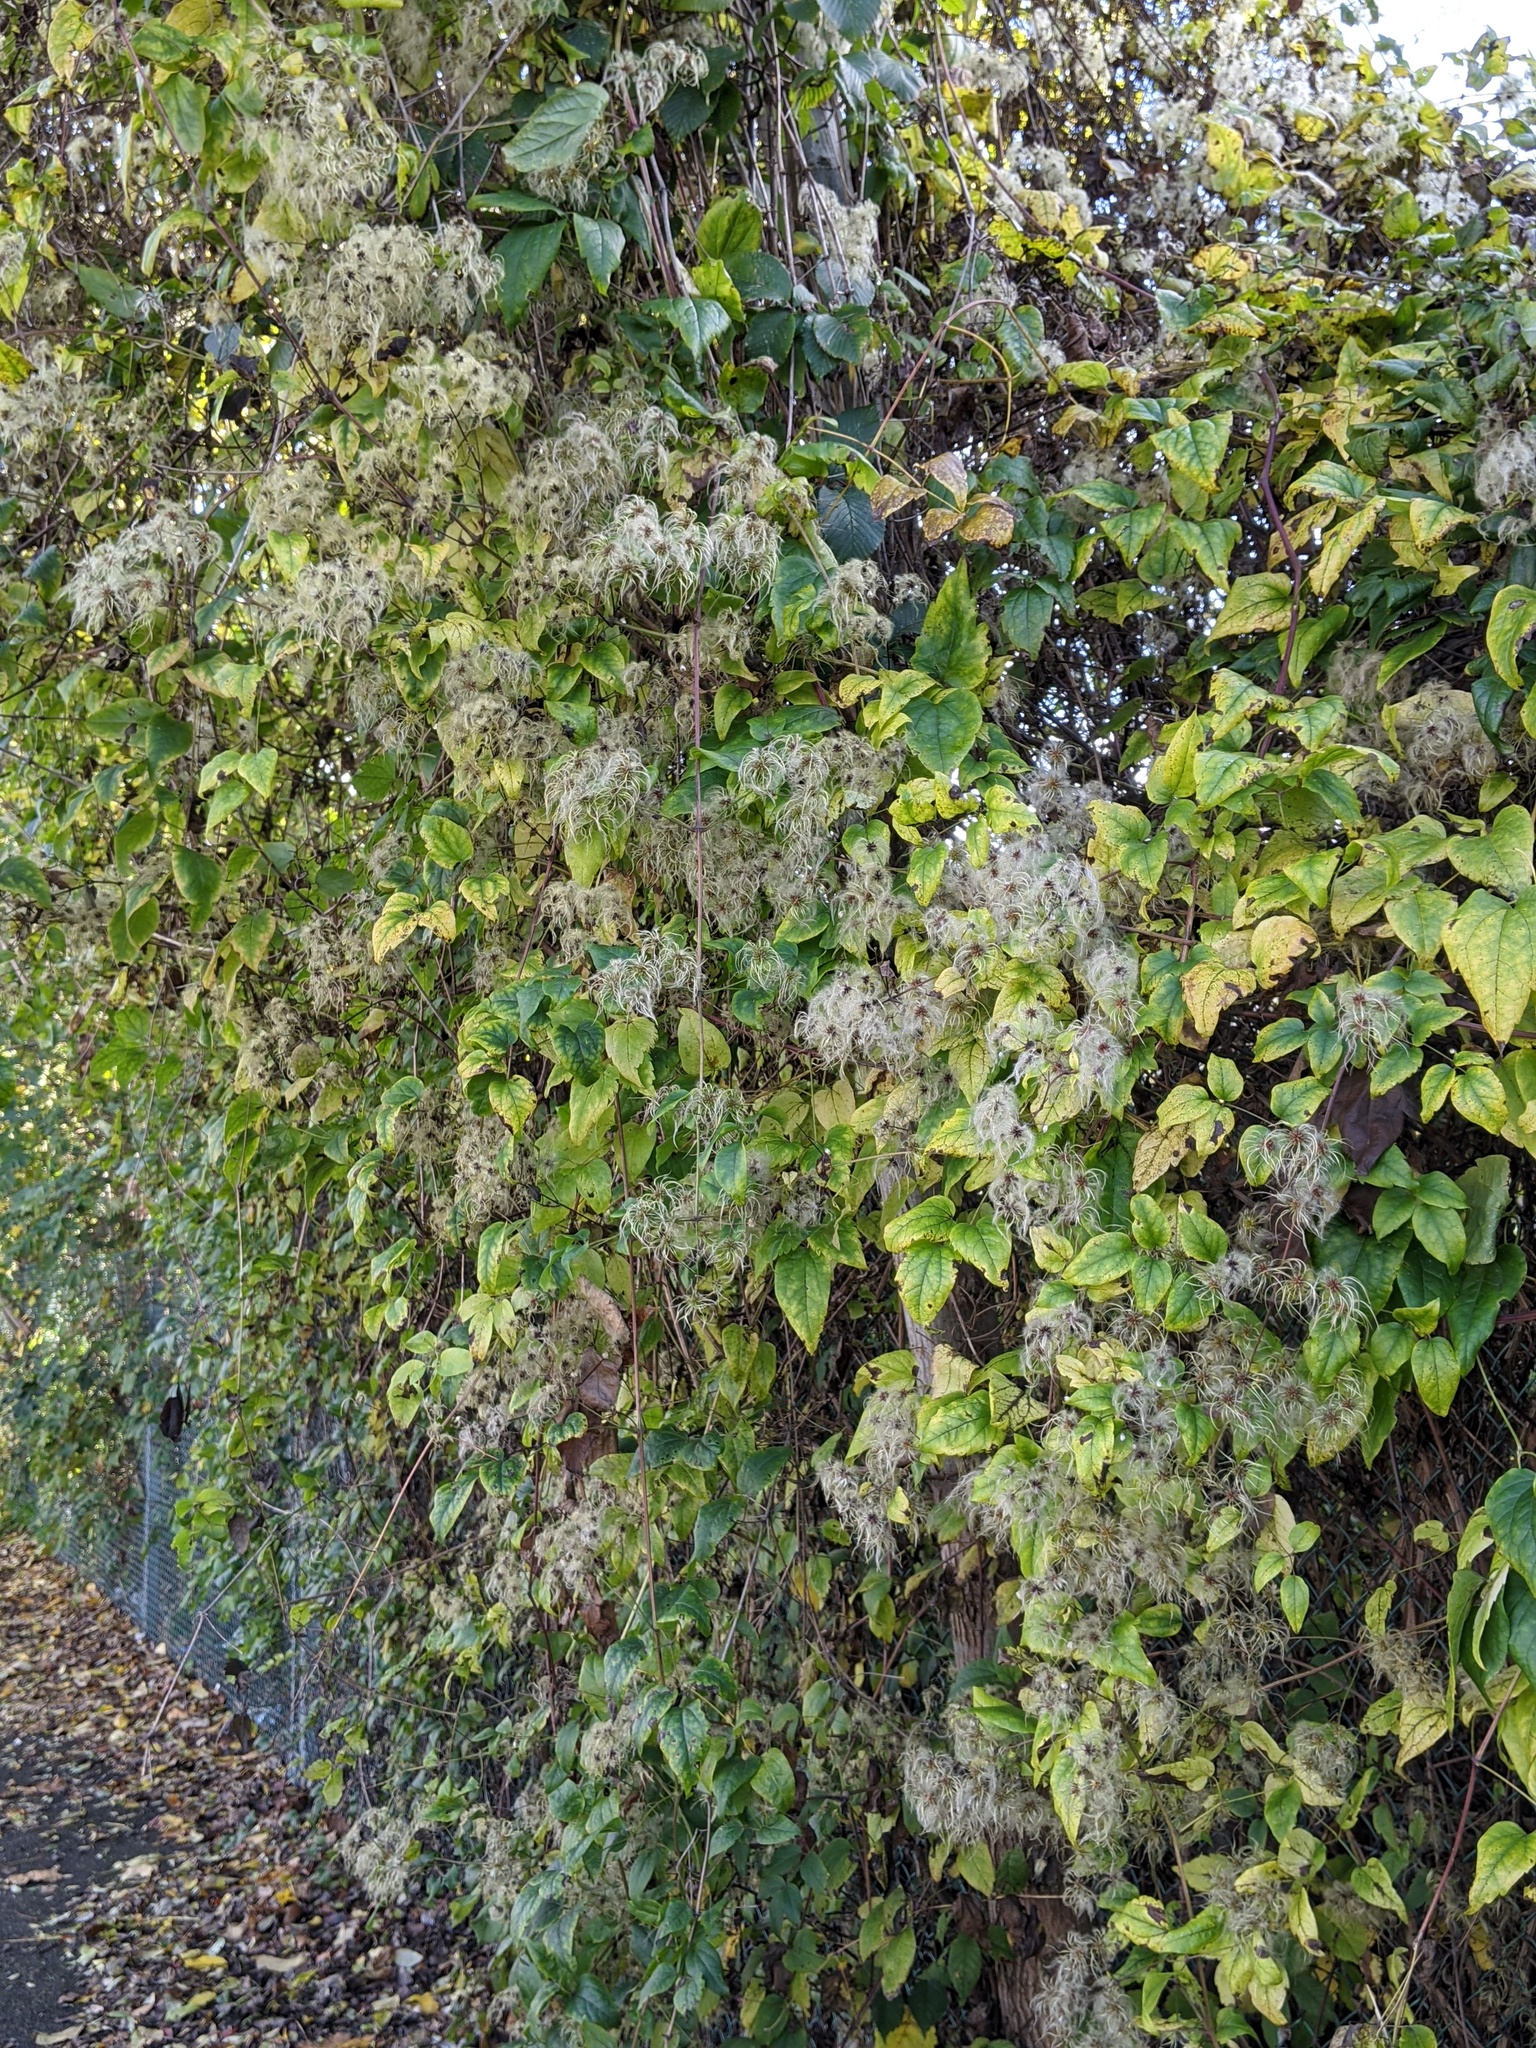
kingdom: Plantae
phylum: Tracheophyta
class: Magnoliopsida
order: Ranunculales
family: Ranunculaceae
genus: Clematis
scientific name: Clematis vitalba
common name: Evergreen clematis
